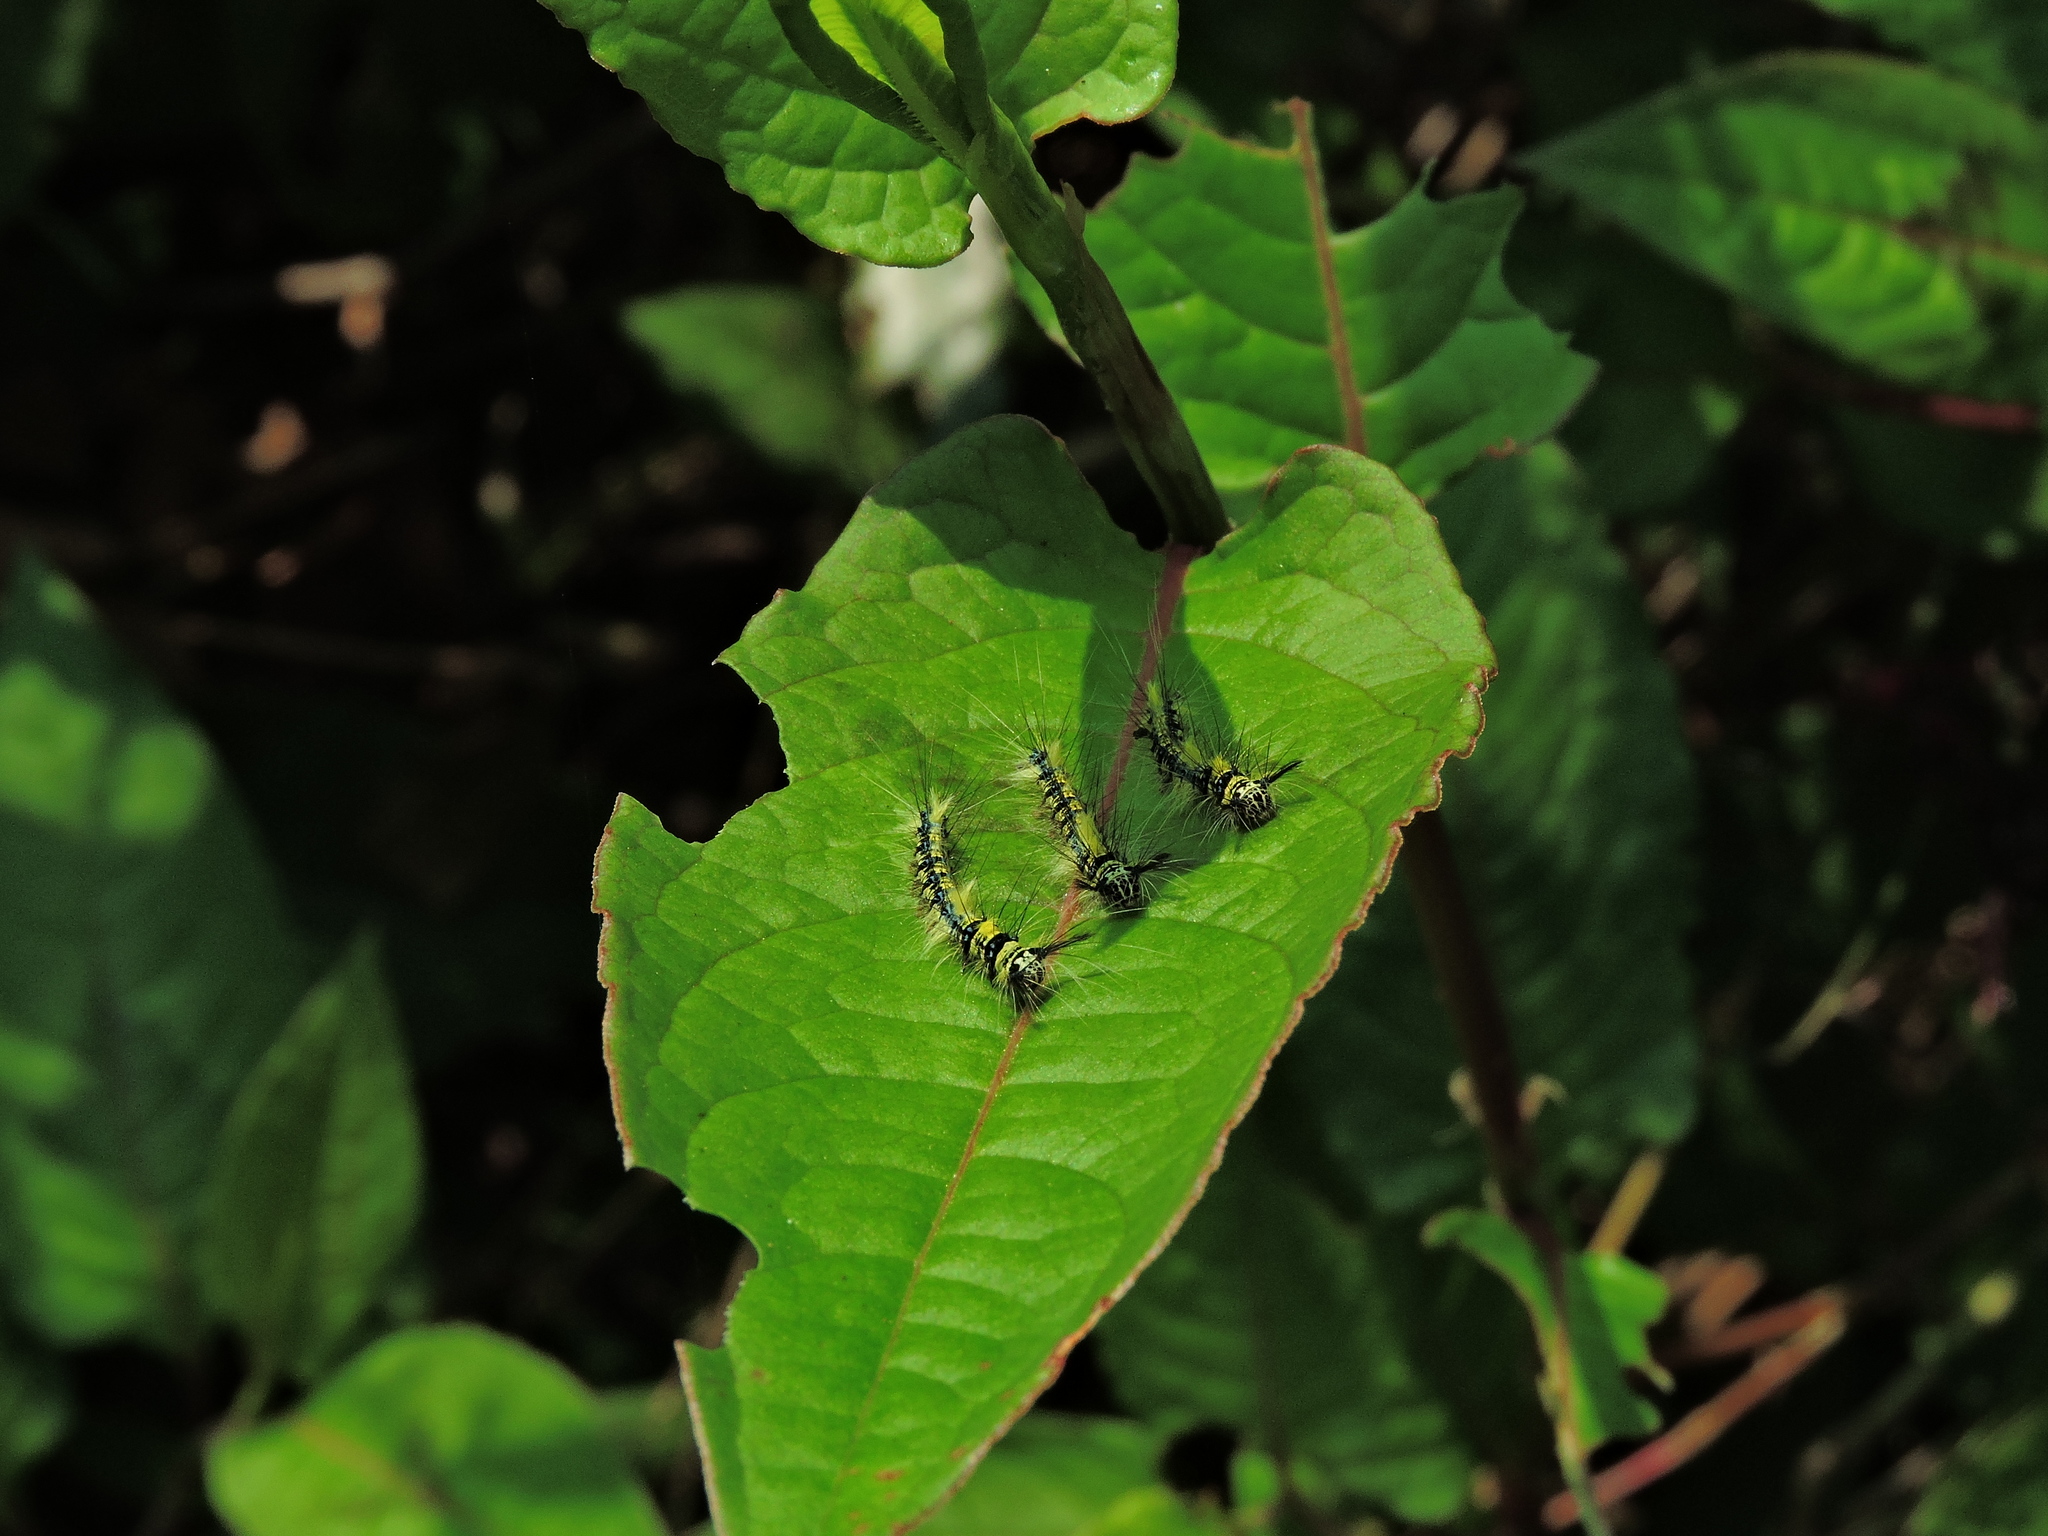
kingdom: Animalia
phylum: Arthropoda
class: Insecta
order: Lepidoptera
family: Lasiocampidae
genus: Trabala
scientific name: Trabala vishnou
